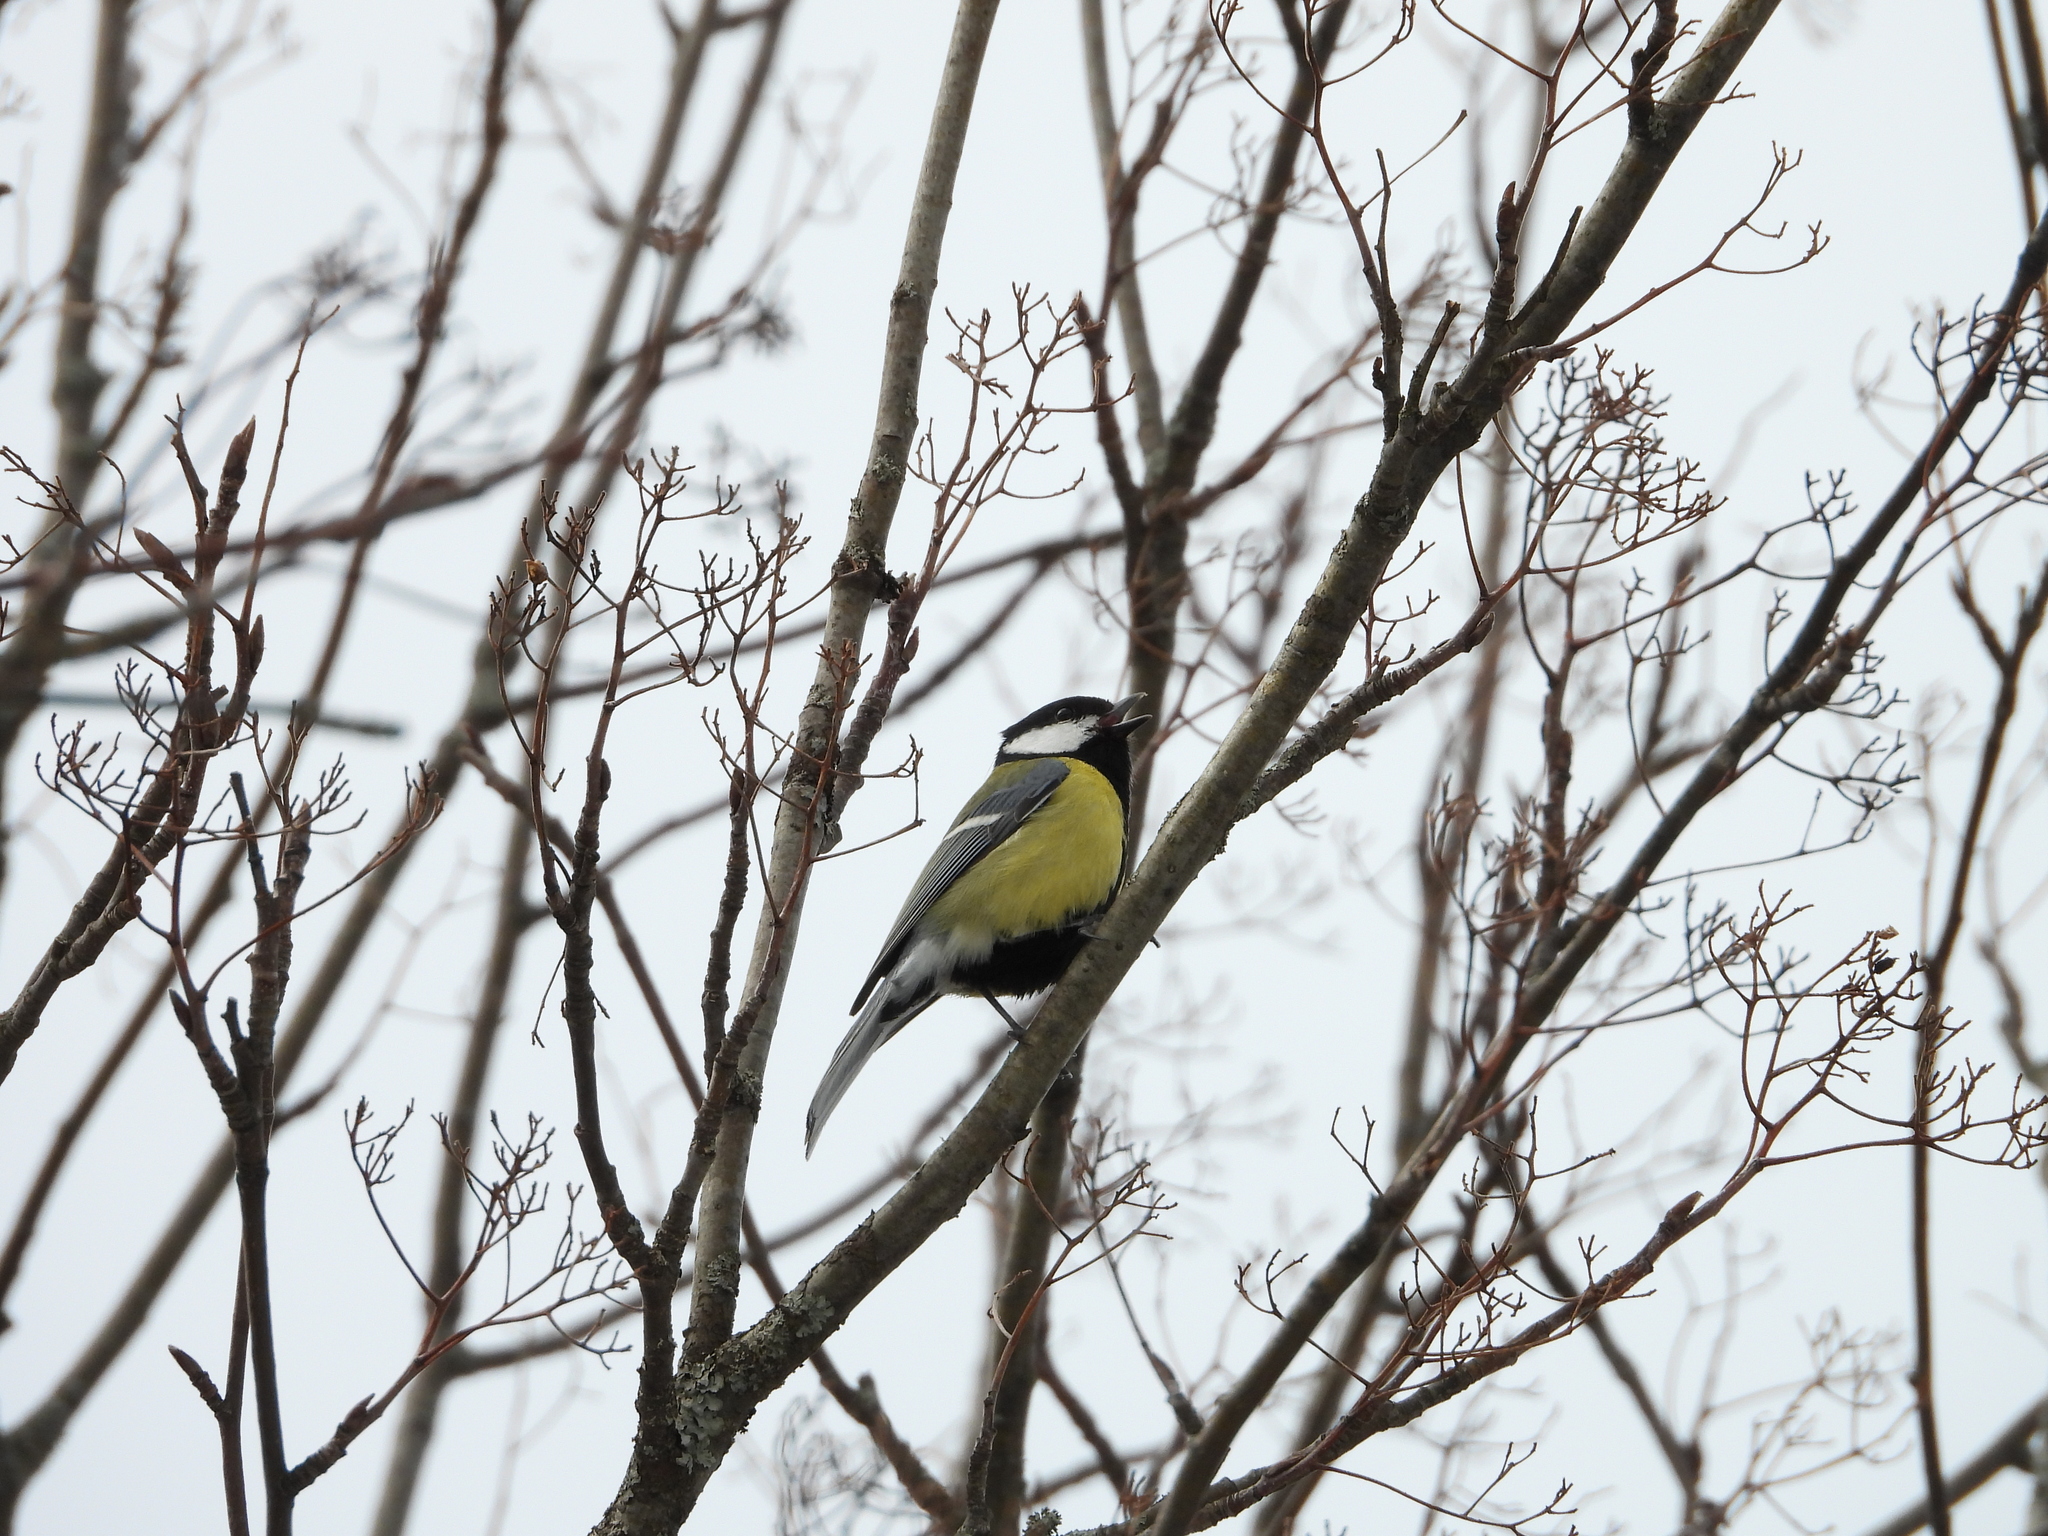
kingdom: Animalia
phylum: Chordata
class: Aves
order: Passeriformes
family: Paridae
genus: Parus
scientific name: Parus major
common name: Great tit
